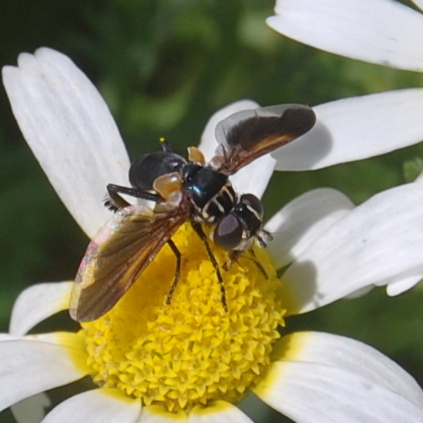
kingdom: Animalia
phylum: Arthropoda
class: Insecta
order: Diptera
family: Tachinidae
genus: Trichopoda
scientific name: Trichopoda pictipennis
